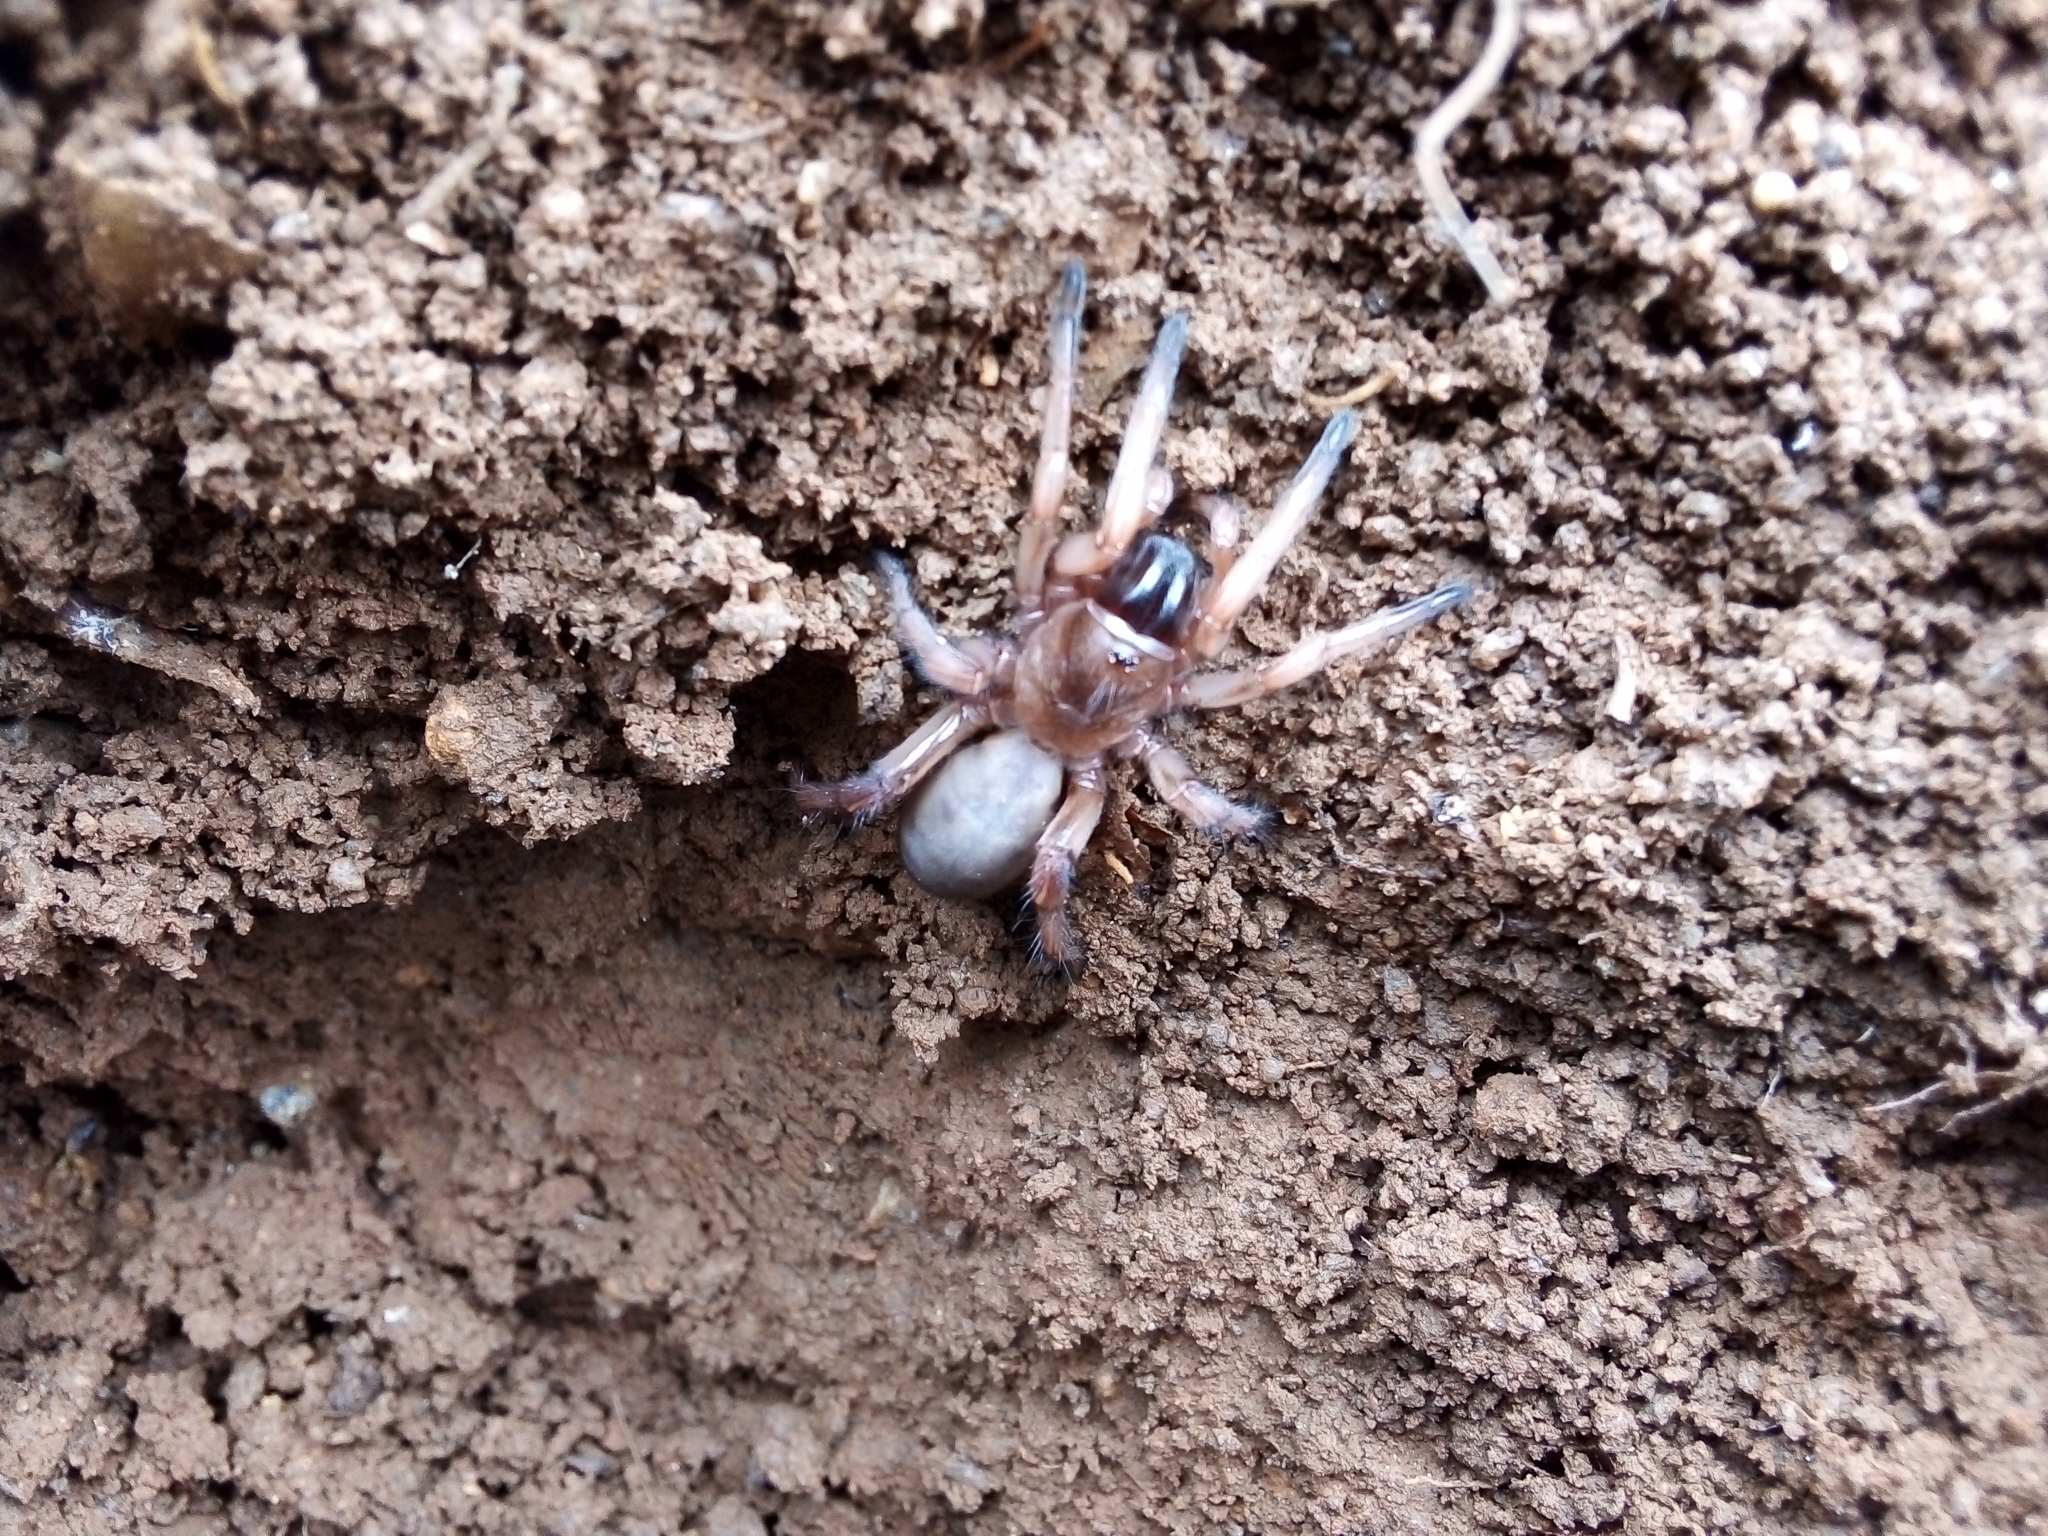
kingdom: Animalia
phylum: Arthropoda
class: Arachnida
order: Araneae
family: Nemesiidae
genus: Iberesia
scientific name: Iberesia machadoi
